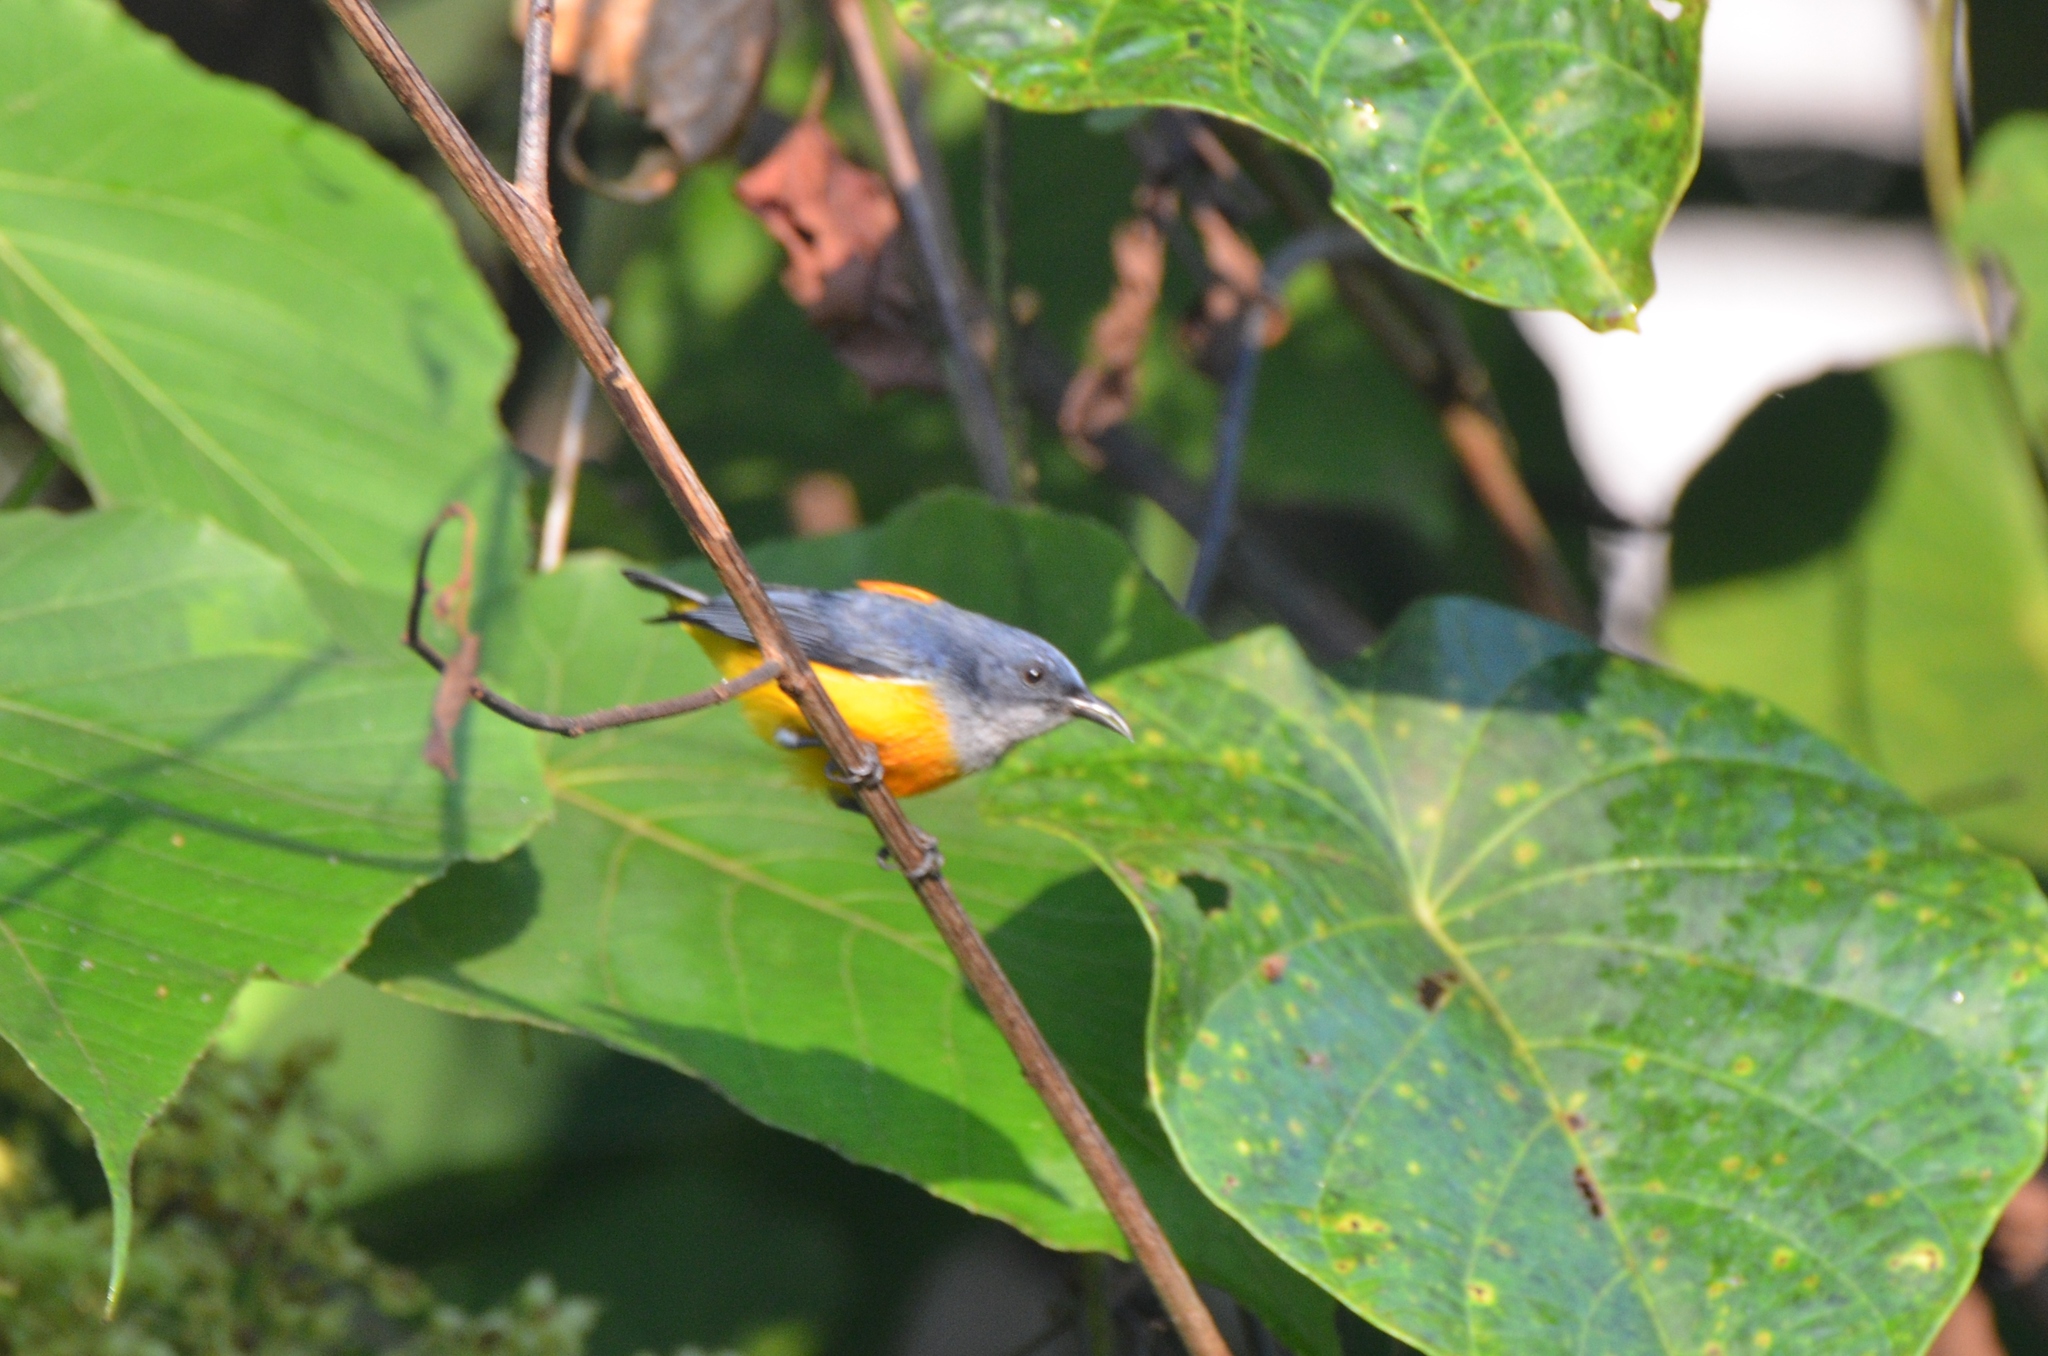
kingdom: Animalia
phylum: Chordata
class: Aves
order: Passeriformes
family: Dicaeidae
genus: Dicaeum
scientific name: Dicaeum trigonostigma
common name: Orange-bellied flowerpecker
